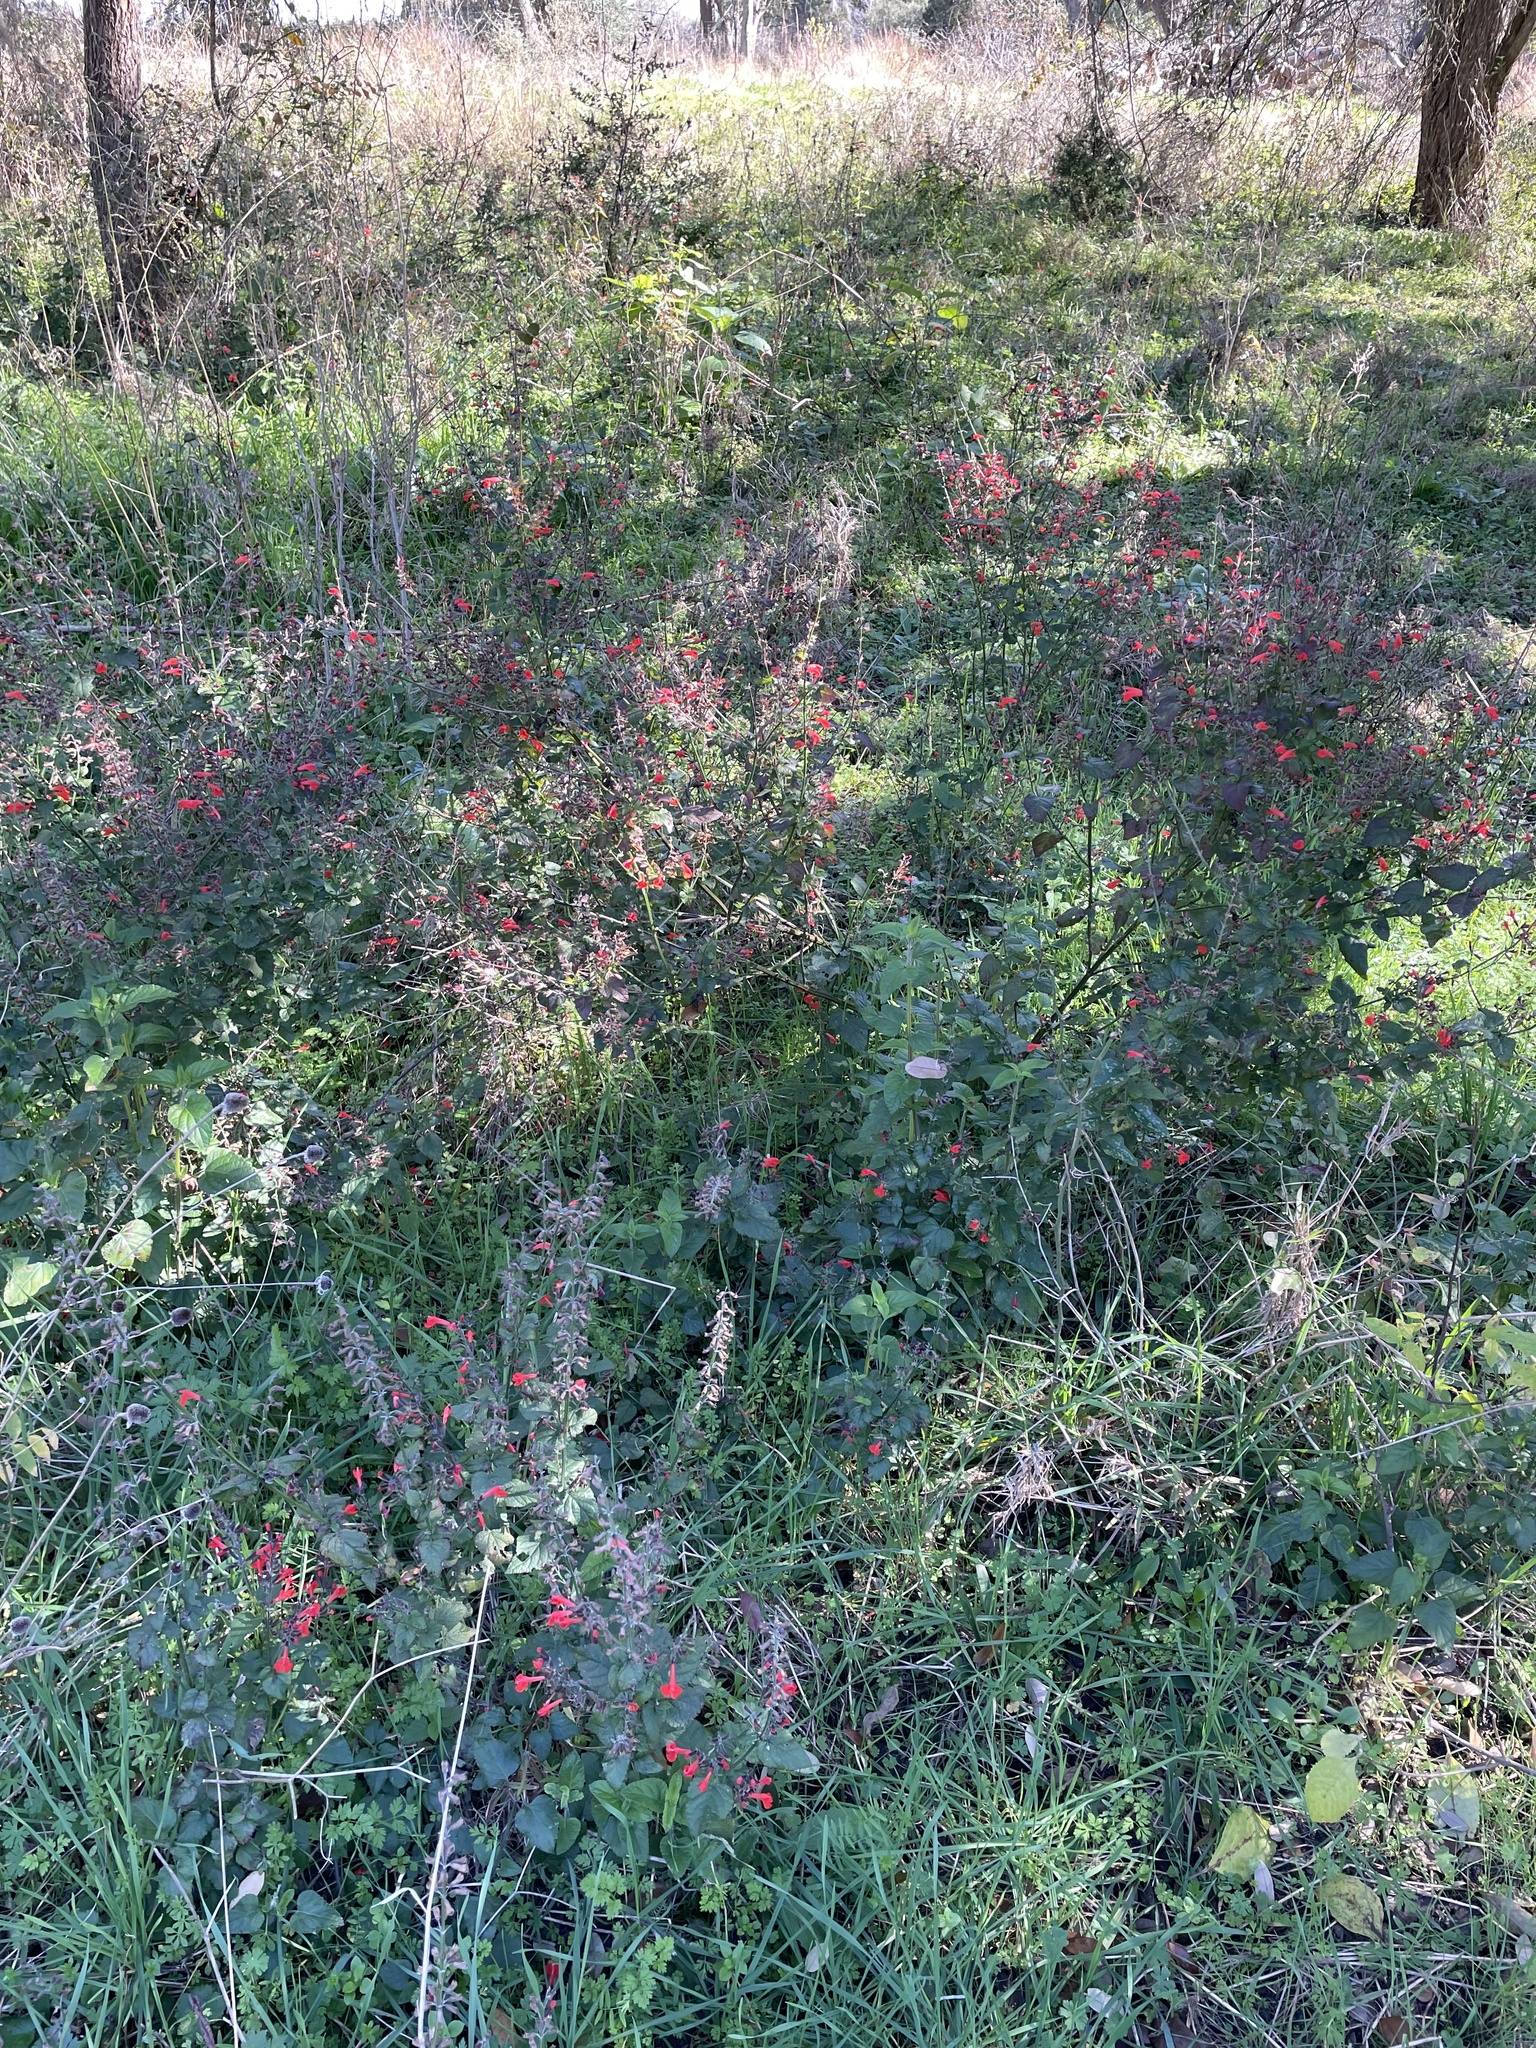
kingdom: Plantae
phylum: Tracheophyta
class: Magnoliopsida
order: Lamiales
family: Lamiaceae
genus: Salvia
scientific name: Salvia coccinea
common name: Blood sage
